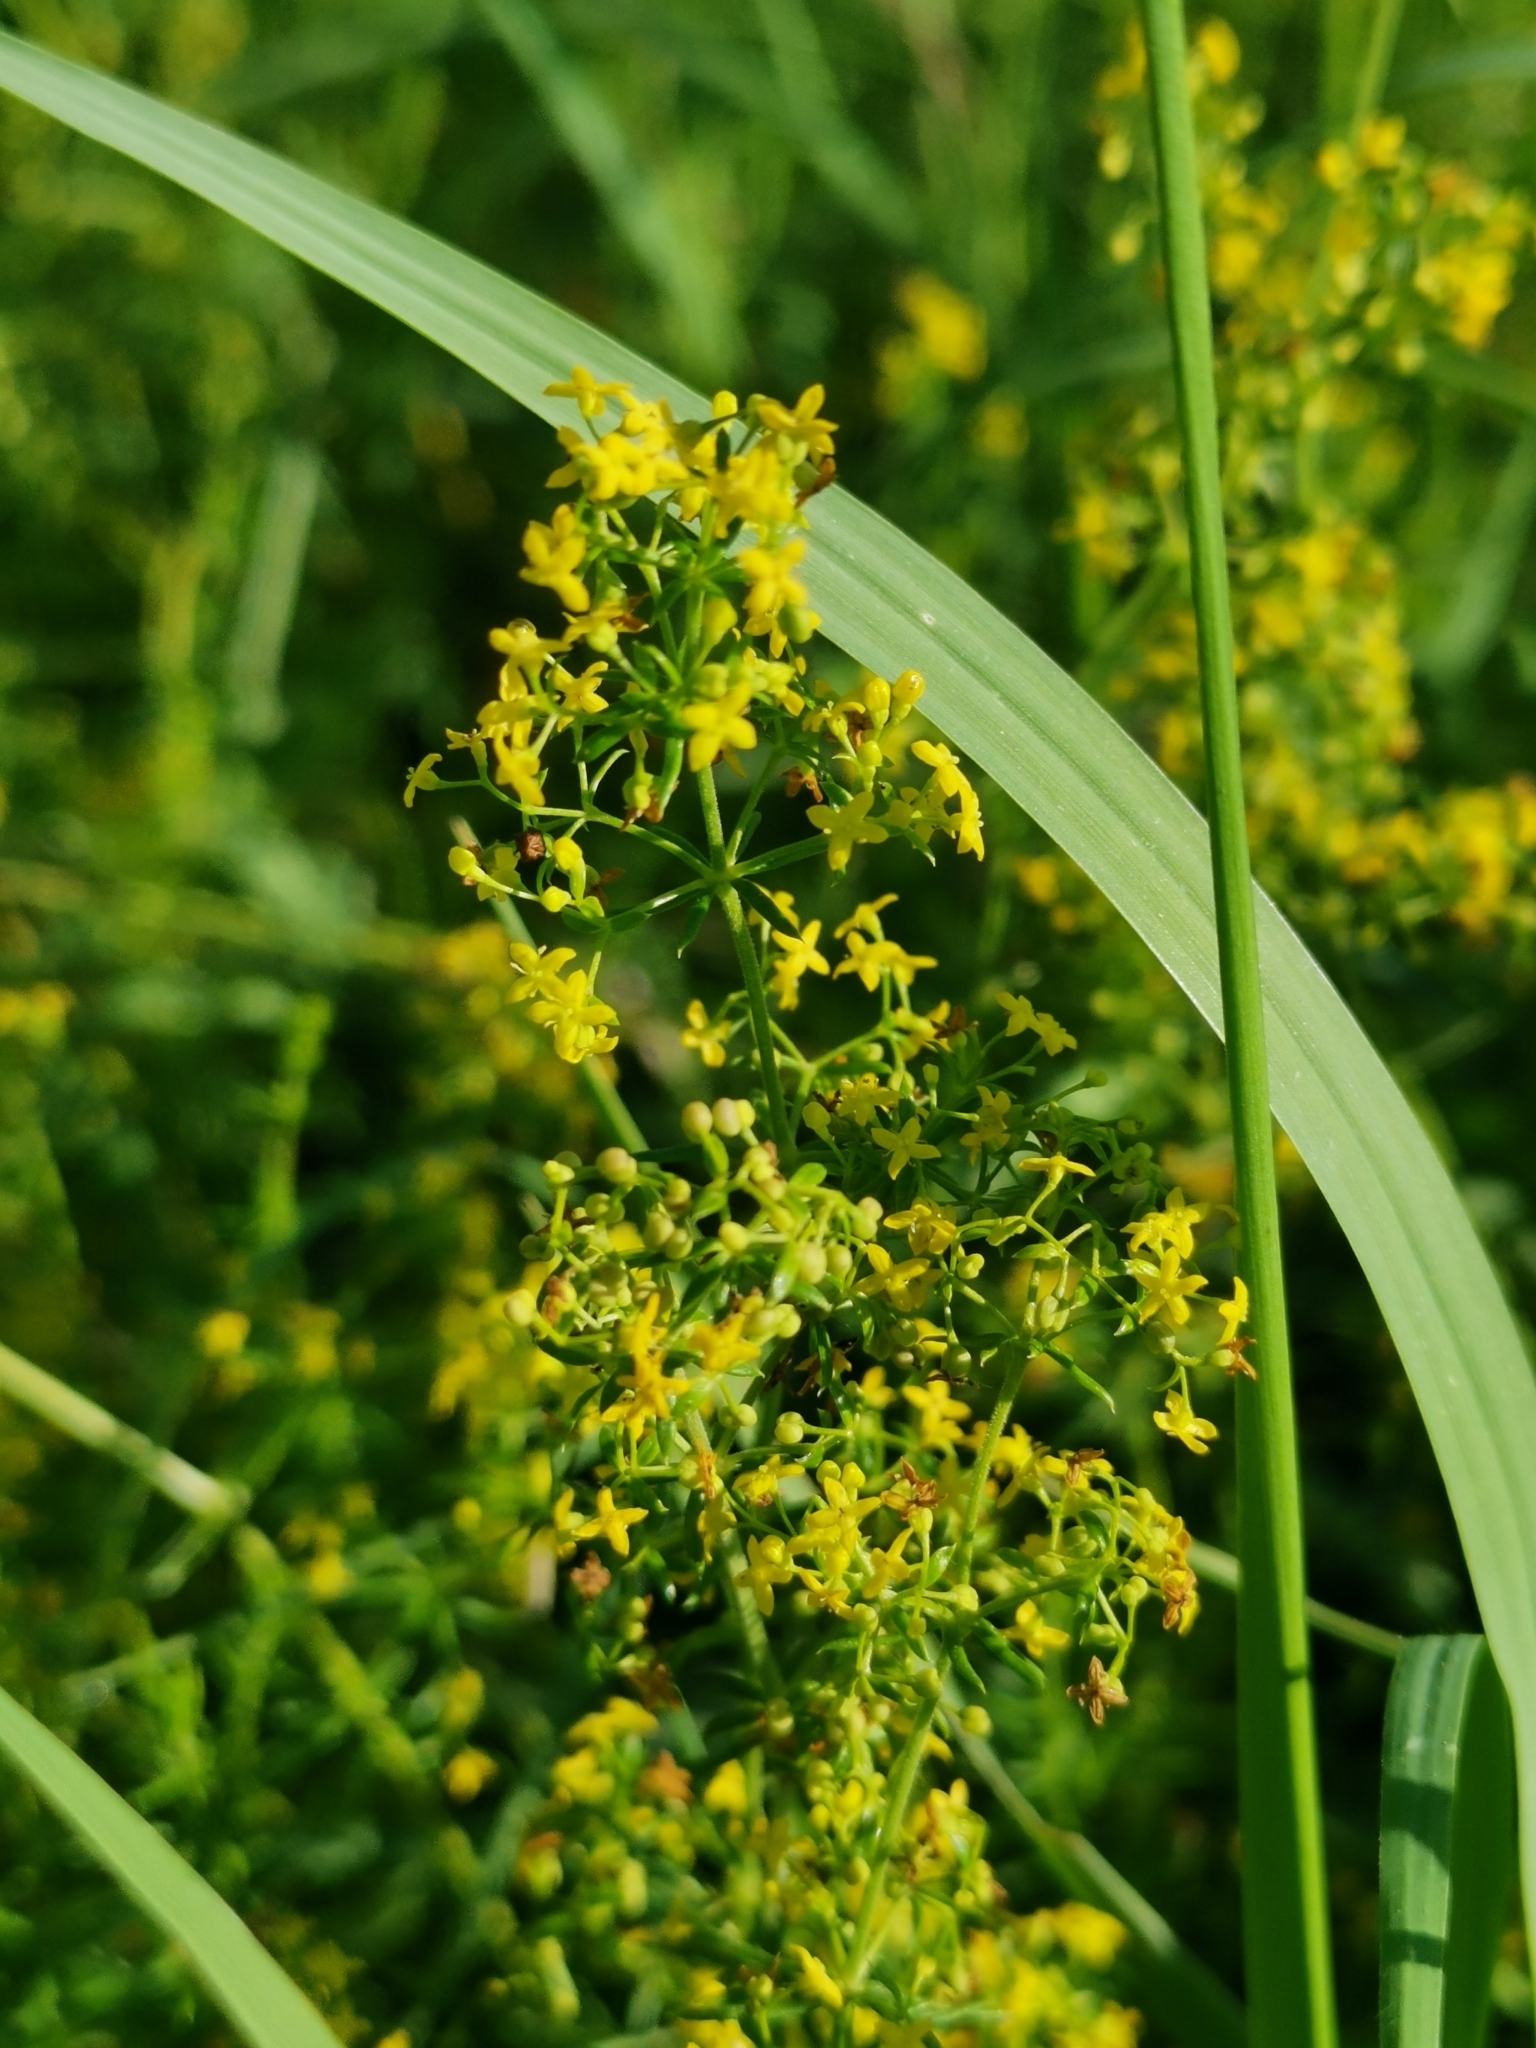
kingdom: Plantae
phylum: Tracheophyta
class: Magnoliopsida
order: Gentianales
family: Rubiaceae
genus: Galium
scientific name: Galium verum
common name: Lady's bedstraw
